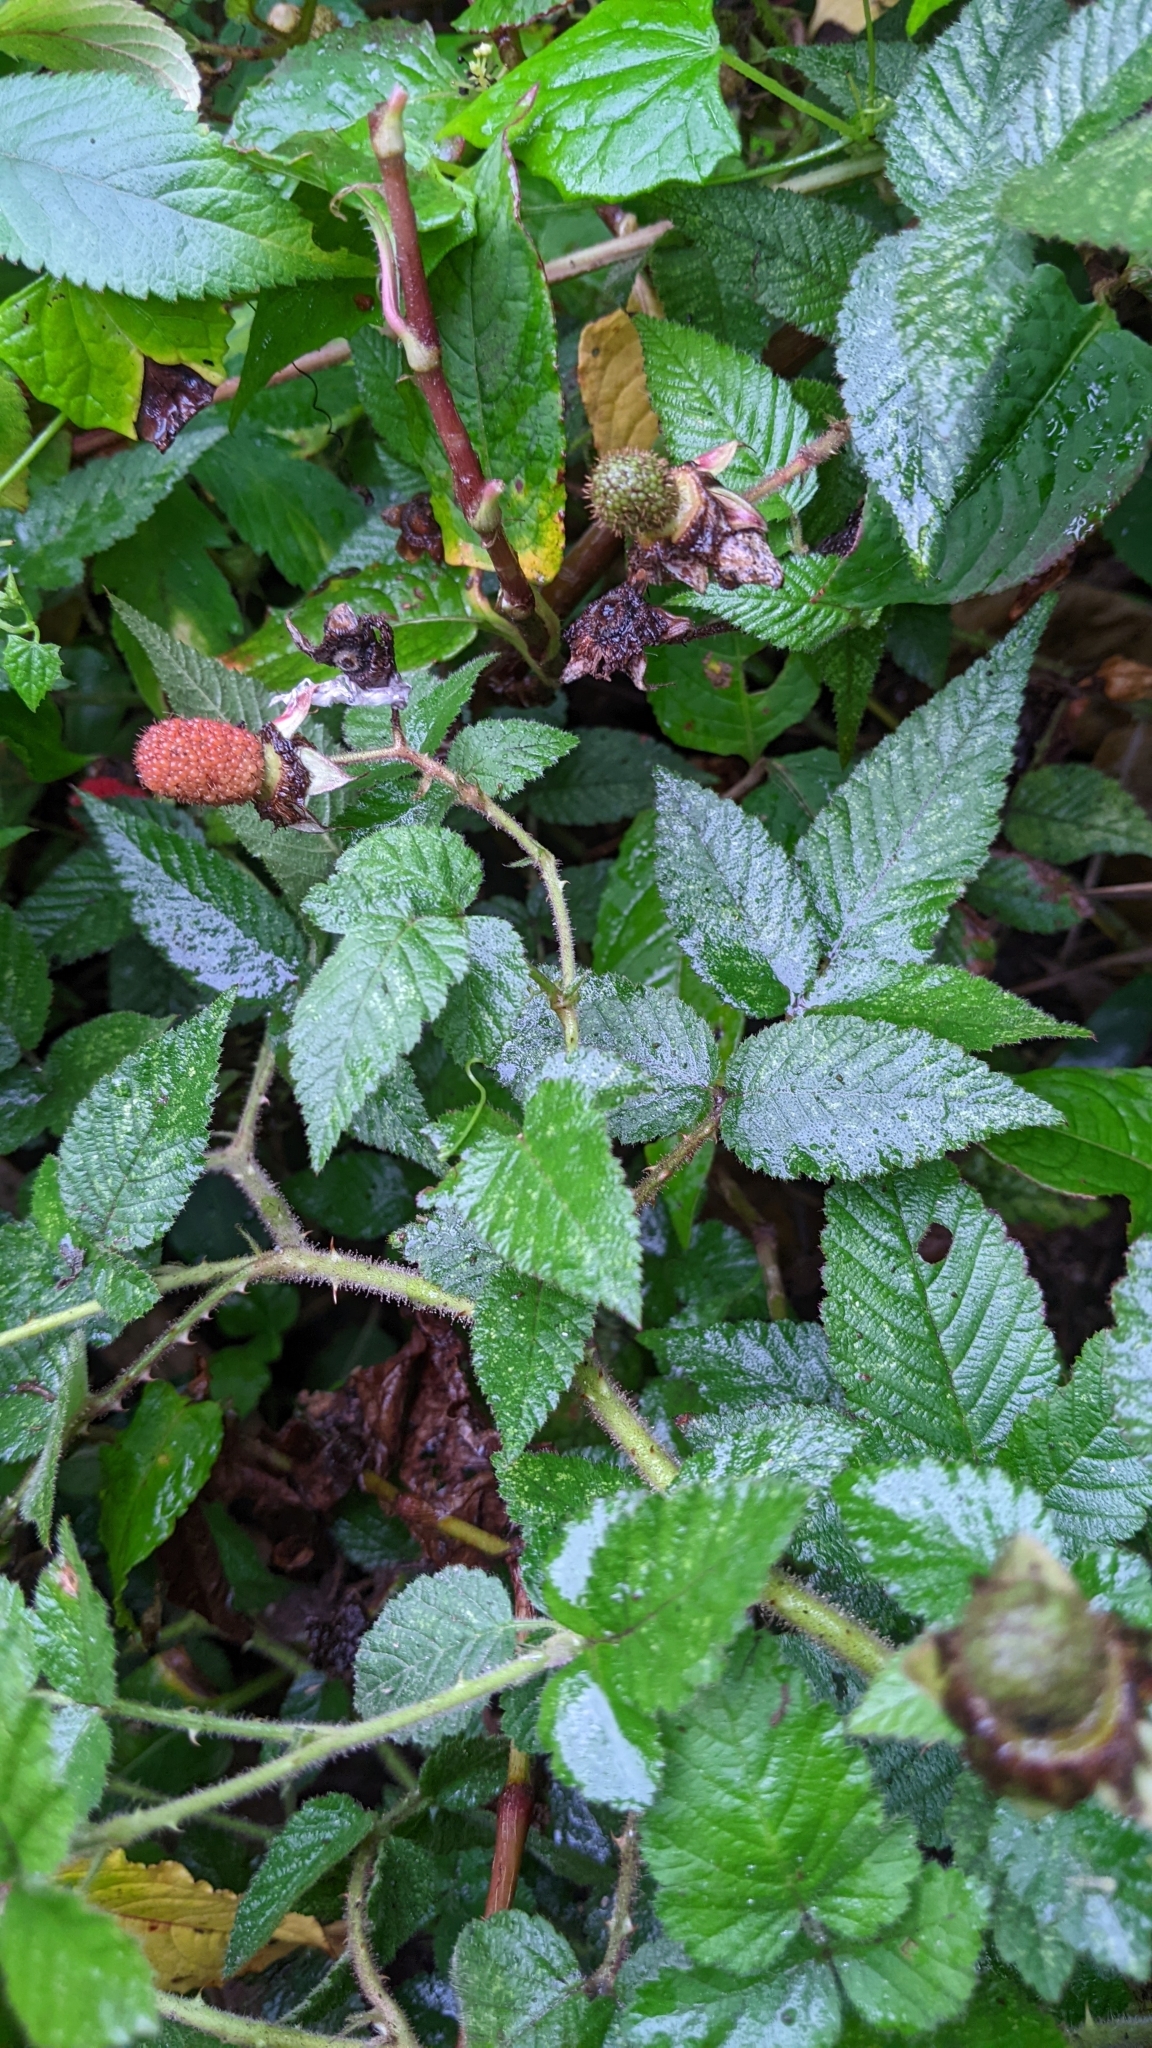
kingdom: Plantae
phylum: Tracheophyta
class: Magnoliopsida
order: Rosales
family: Rosaceae
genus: Rubus
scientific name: Rubus croceacanthus
